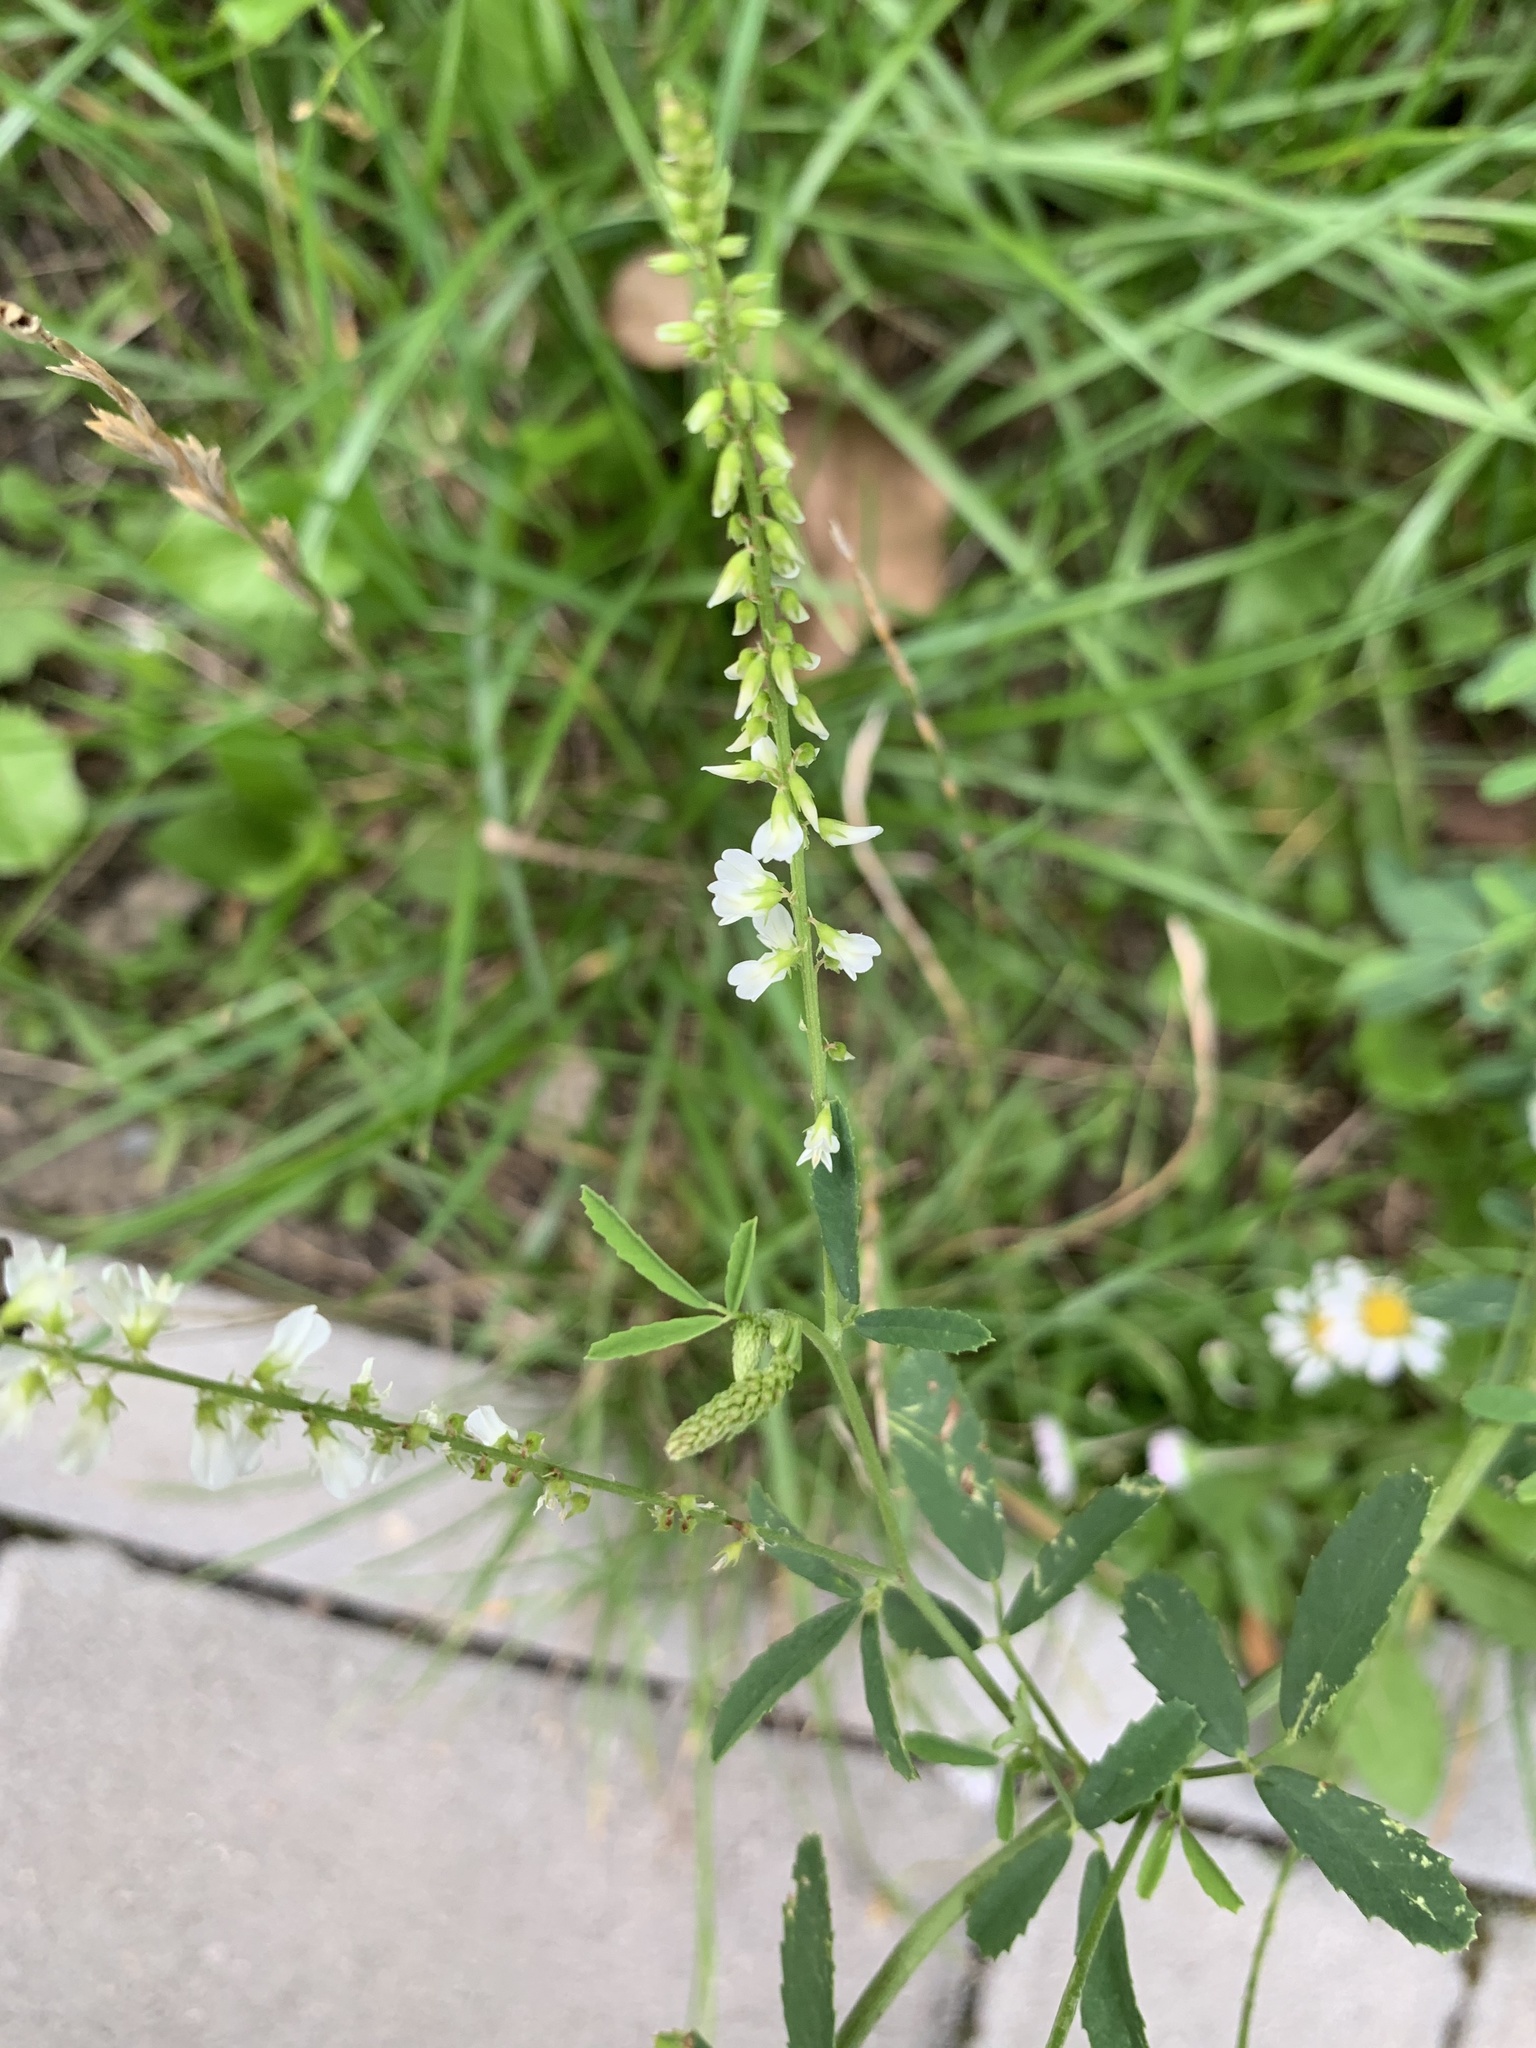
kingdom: Plantae
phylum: Tracheophyta
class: Magnoliopsida
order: Fabales
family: Fabaceae
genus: Melilotus
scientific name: Melilotus albus
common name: White melilot
